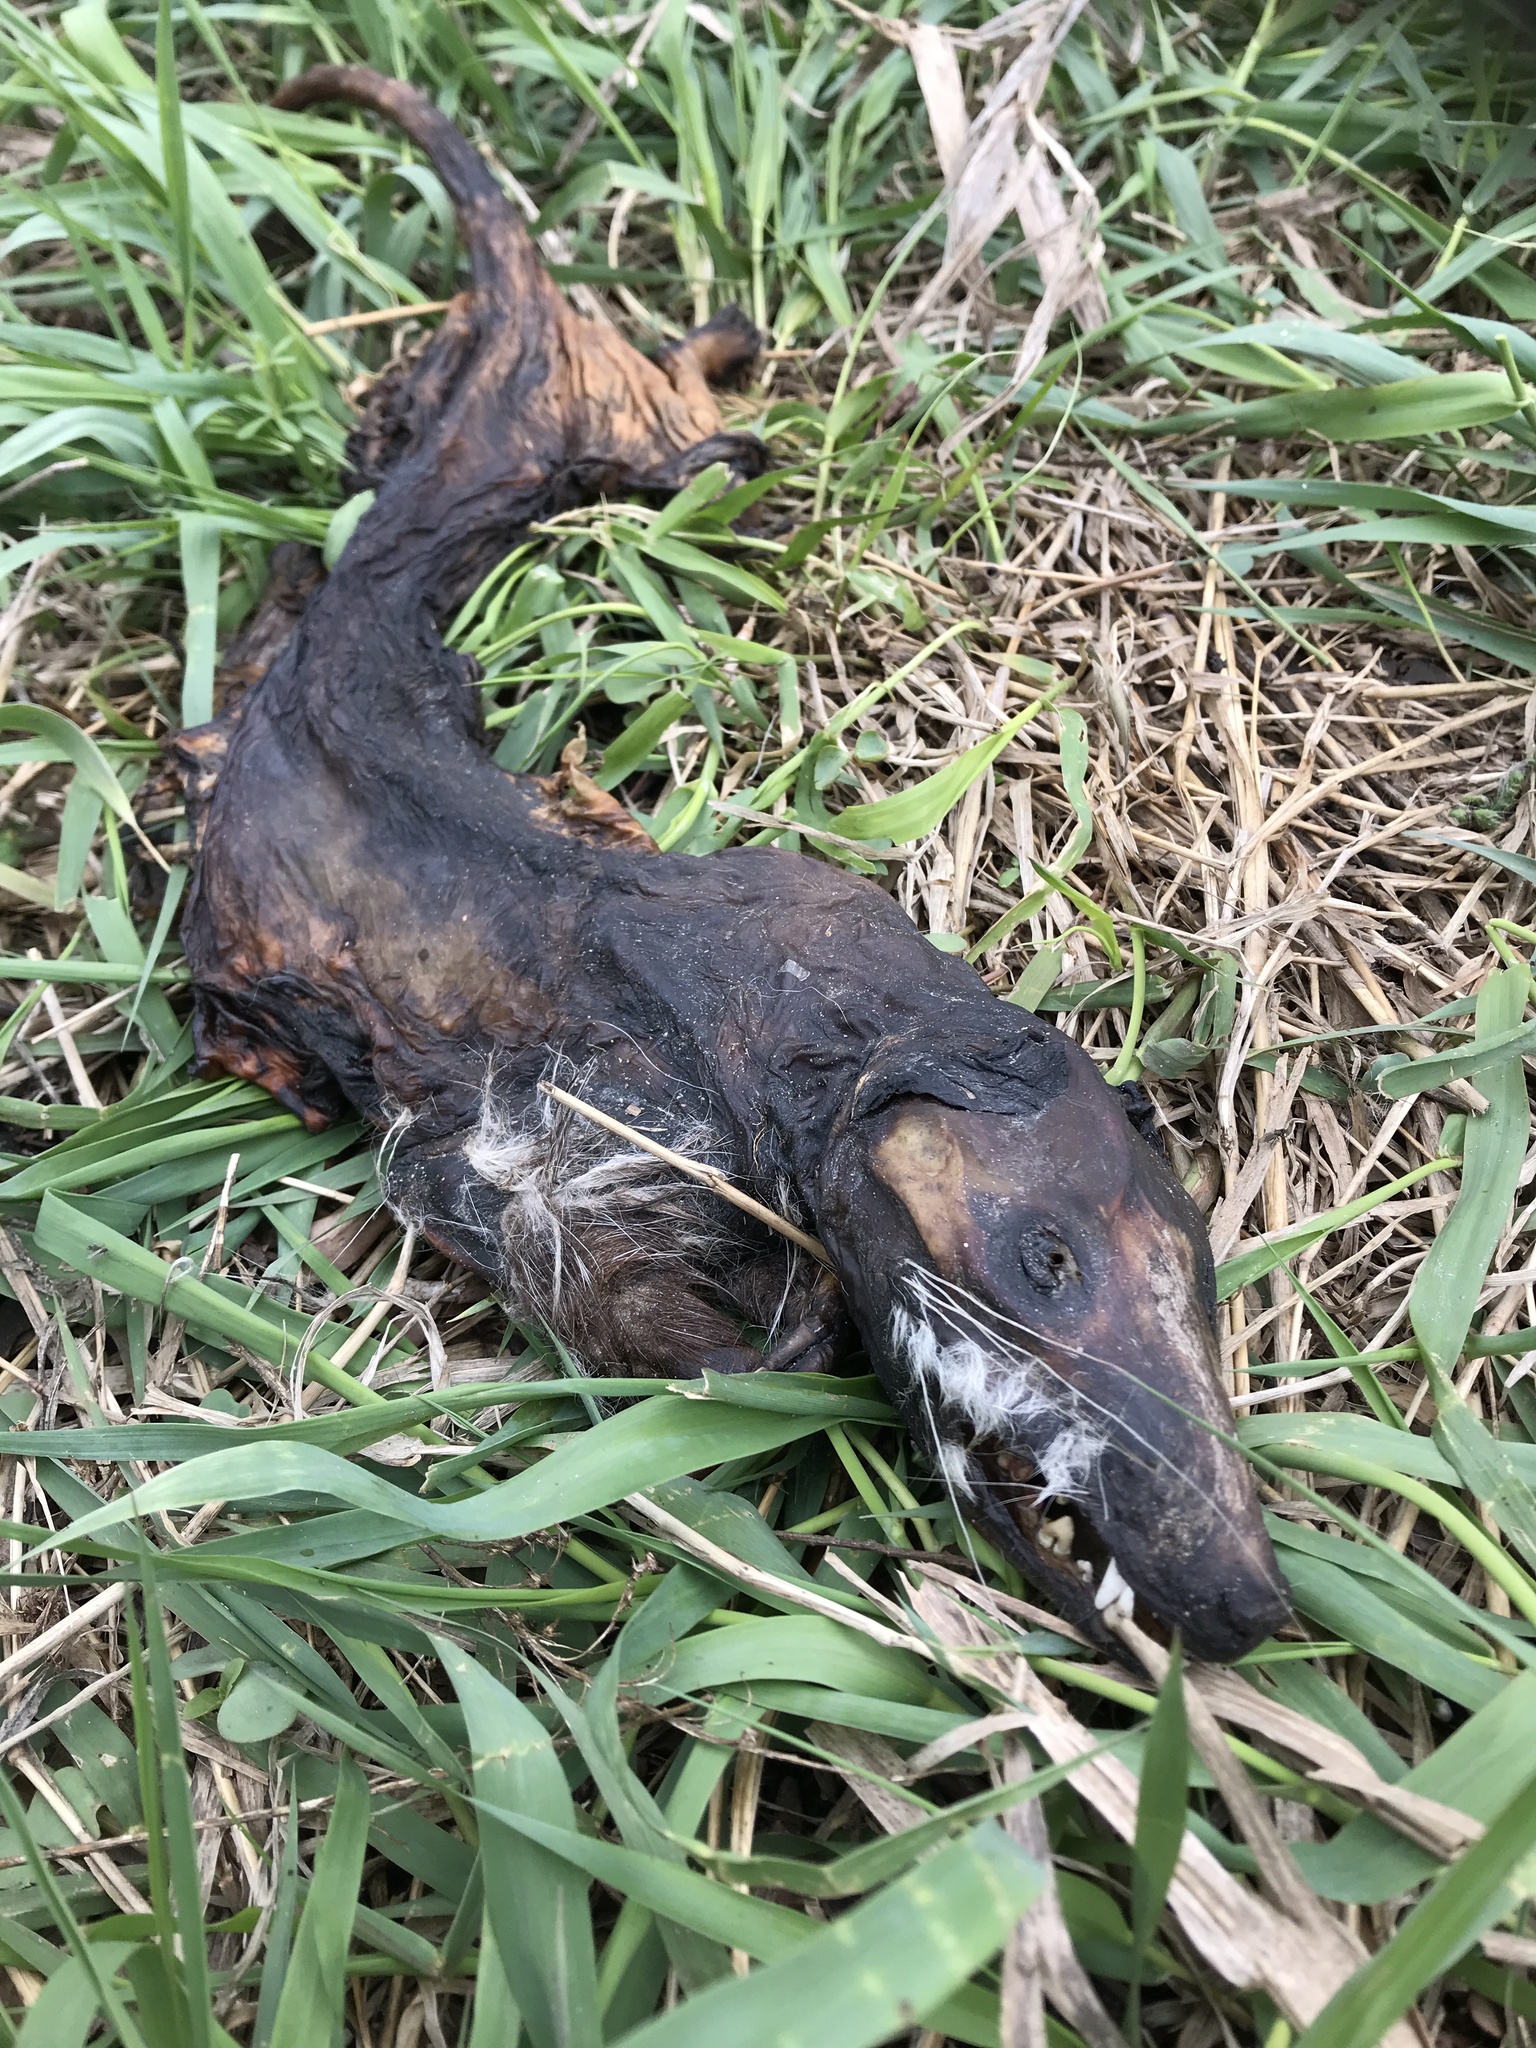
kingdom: Animalia
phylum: Chordata
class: Mammalia
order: Didelphimorphia
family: Didelphidae
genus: Didelphis
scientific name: Didelphis virginiana
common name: Virginia opossum
